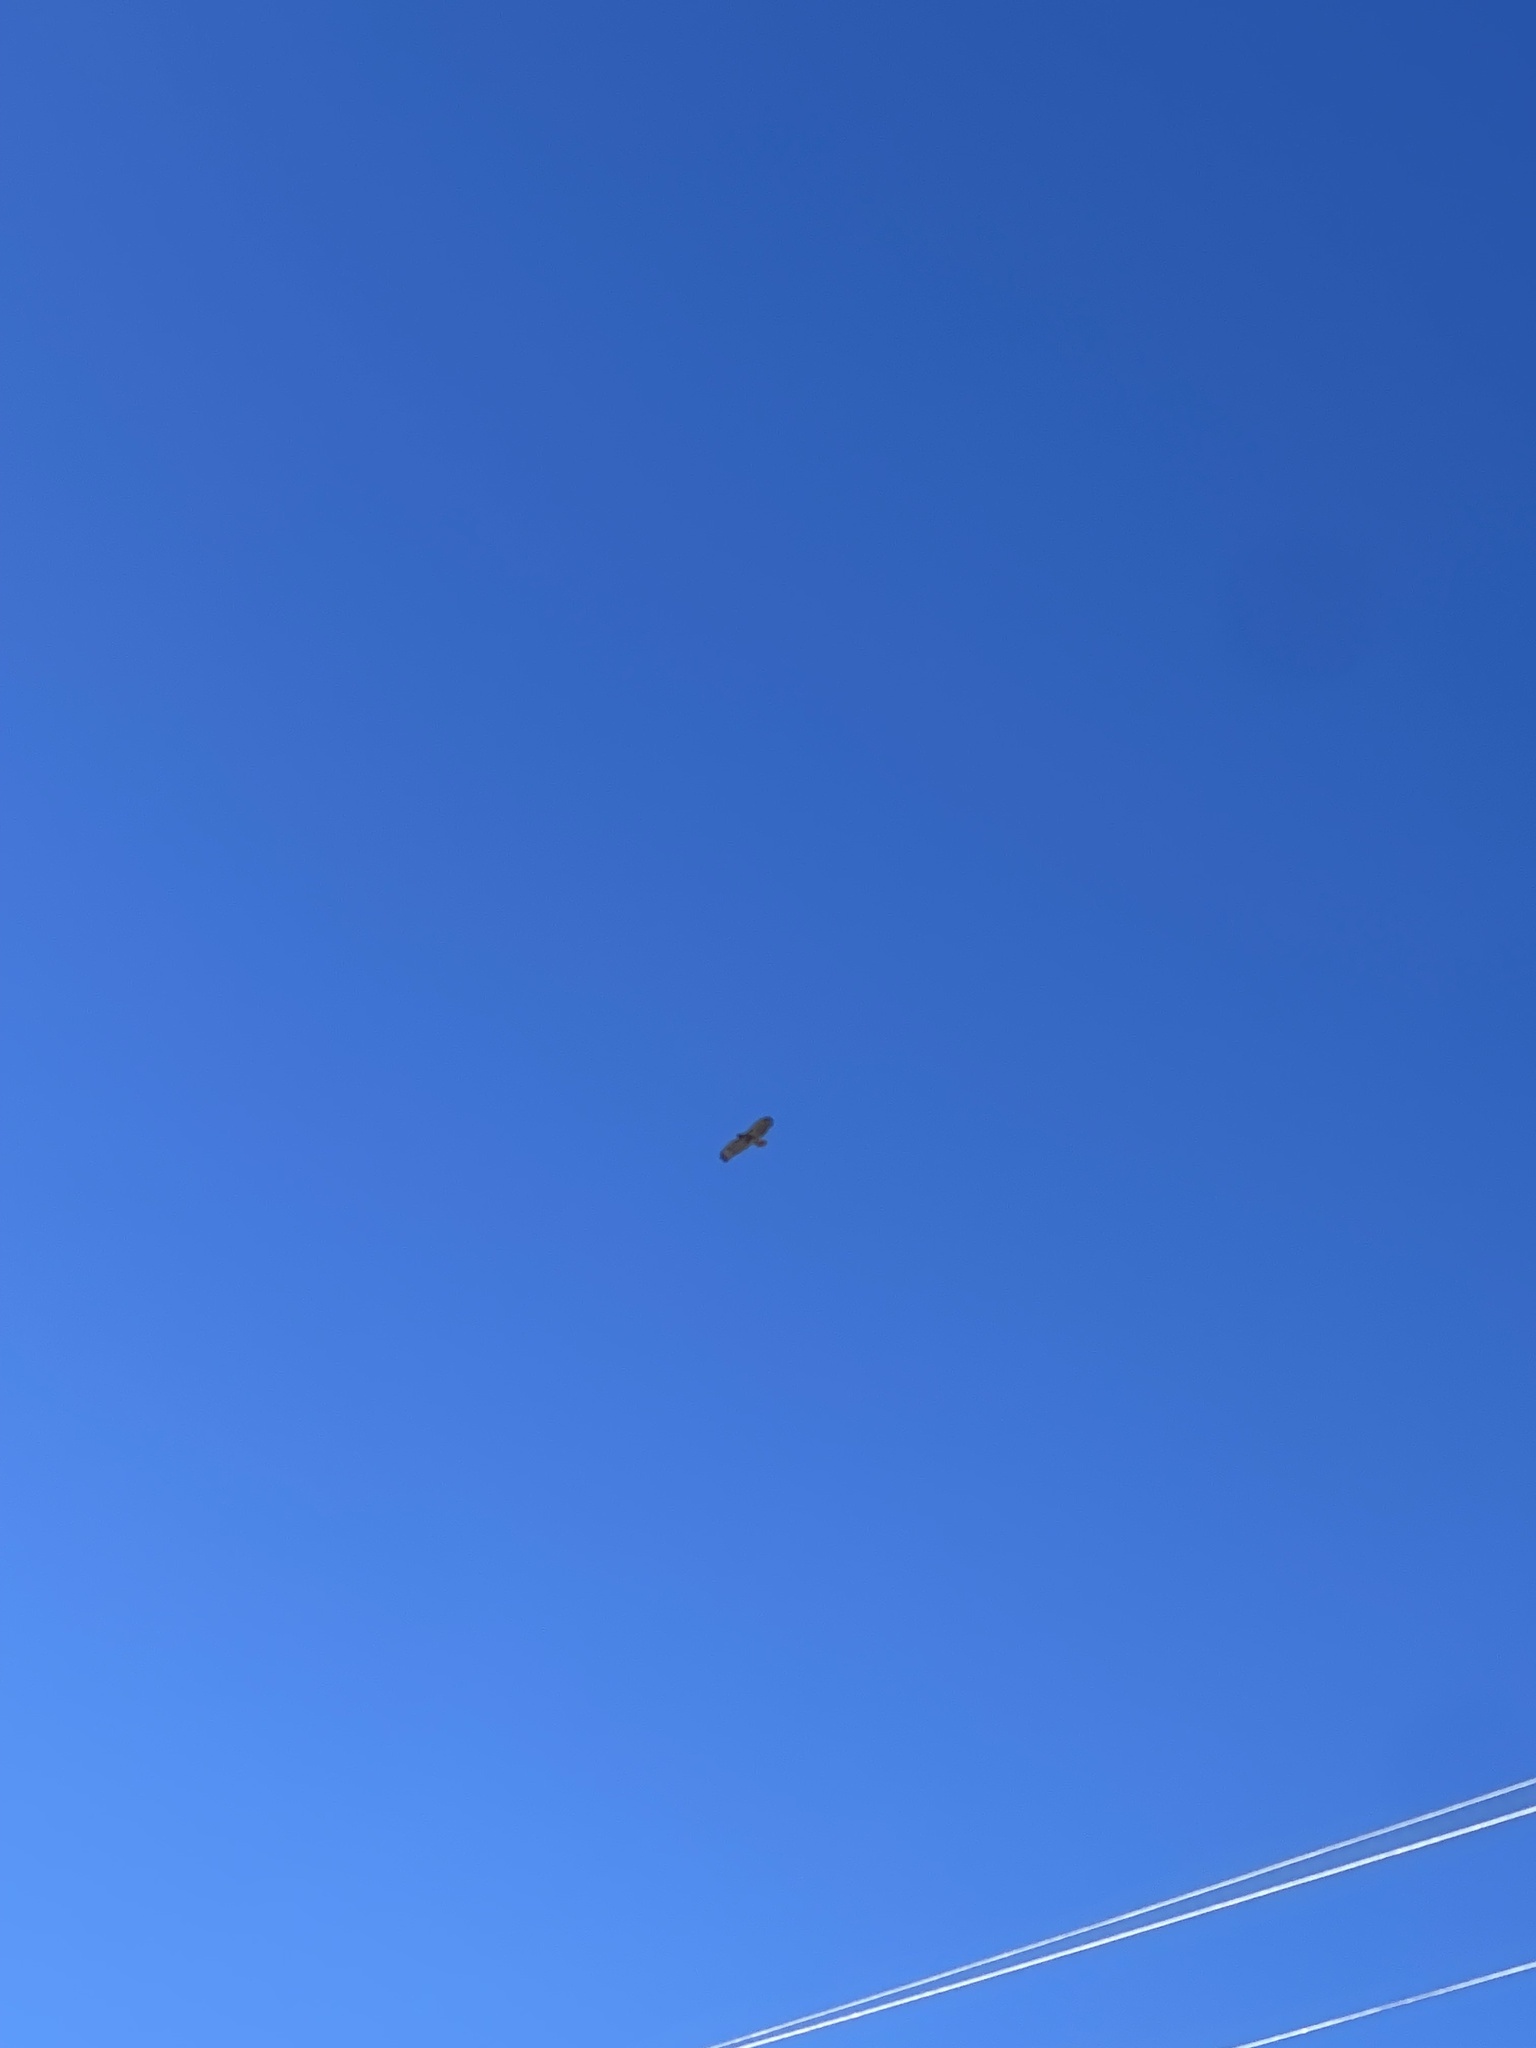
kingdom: Animalia
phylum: Chordata
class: Aves
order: Accipitriformes
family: Accipitridae
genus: Buteo
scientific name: Buteo jamaicensis
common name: Red-tailed hawk
